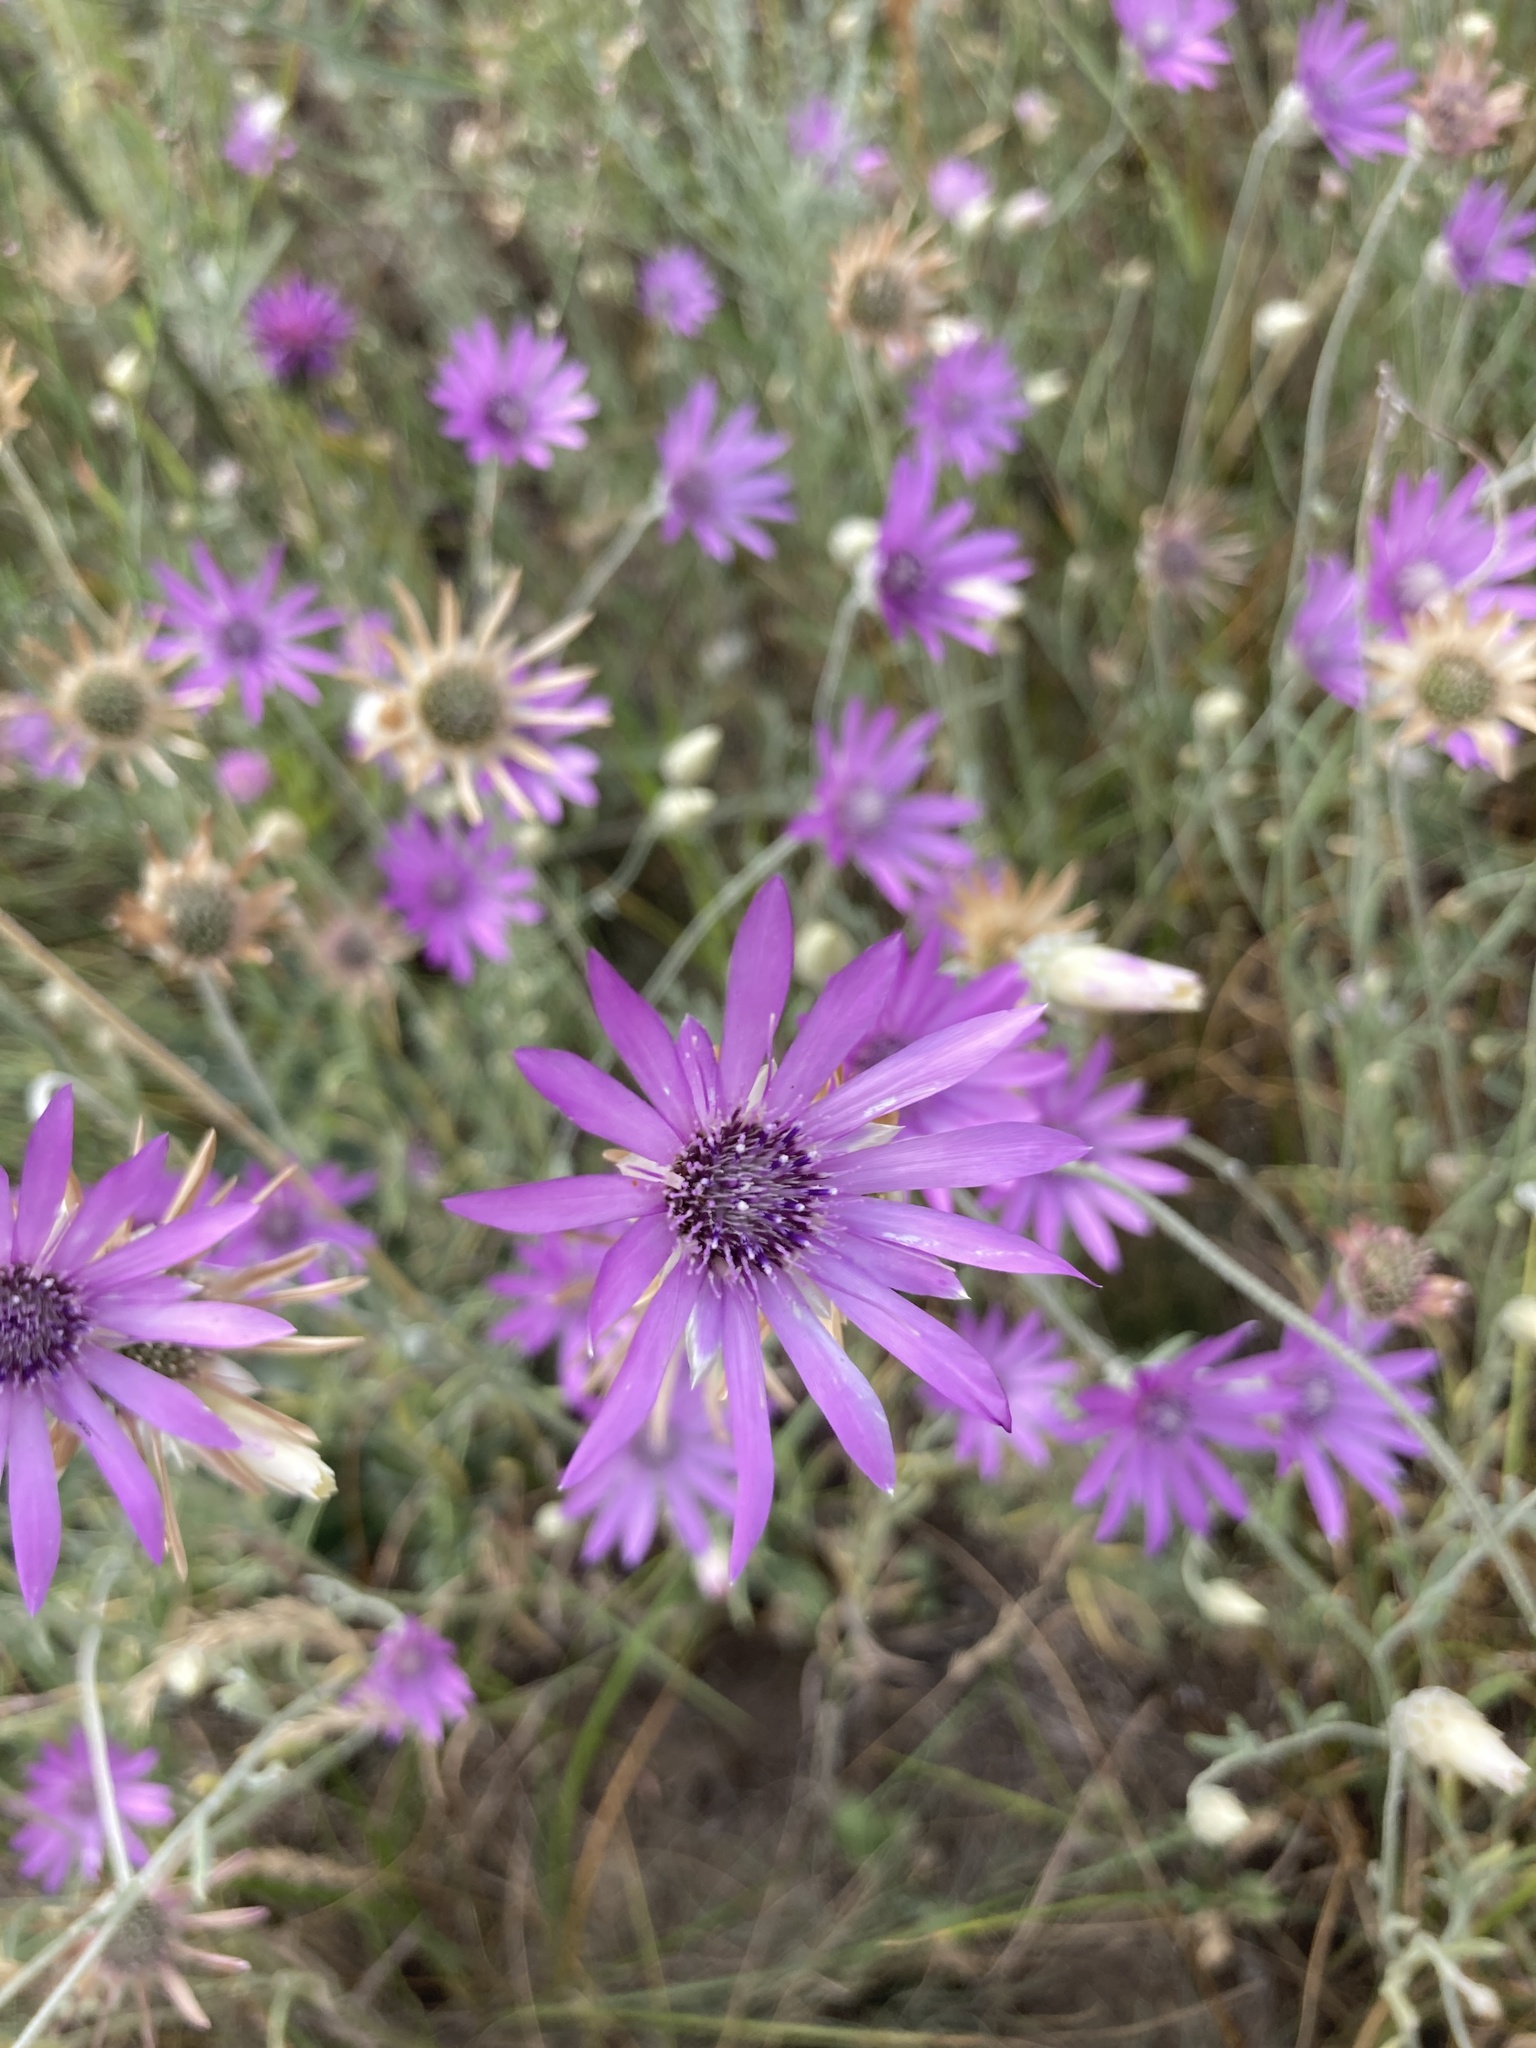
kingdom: Plantae
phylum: Tracheophyta
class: Magnoliopsida
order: Asterales
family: Asteraceae
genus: Xeranthemum
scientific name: Xeranthemum annuum
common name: Immortelle
